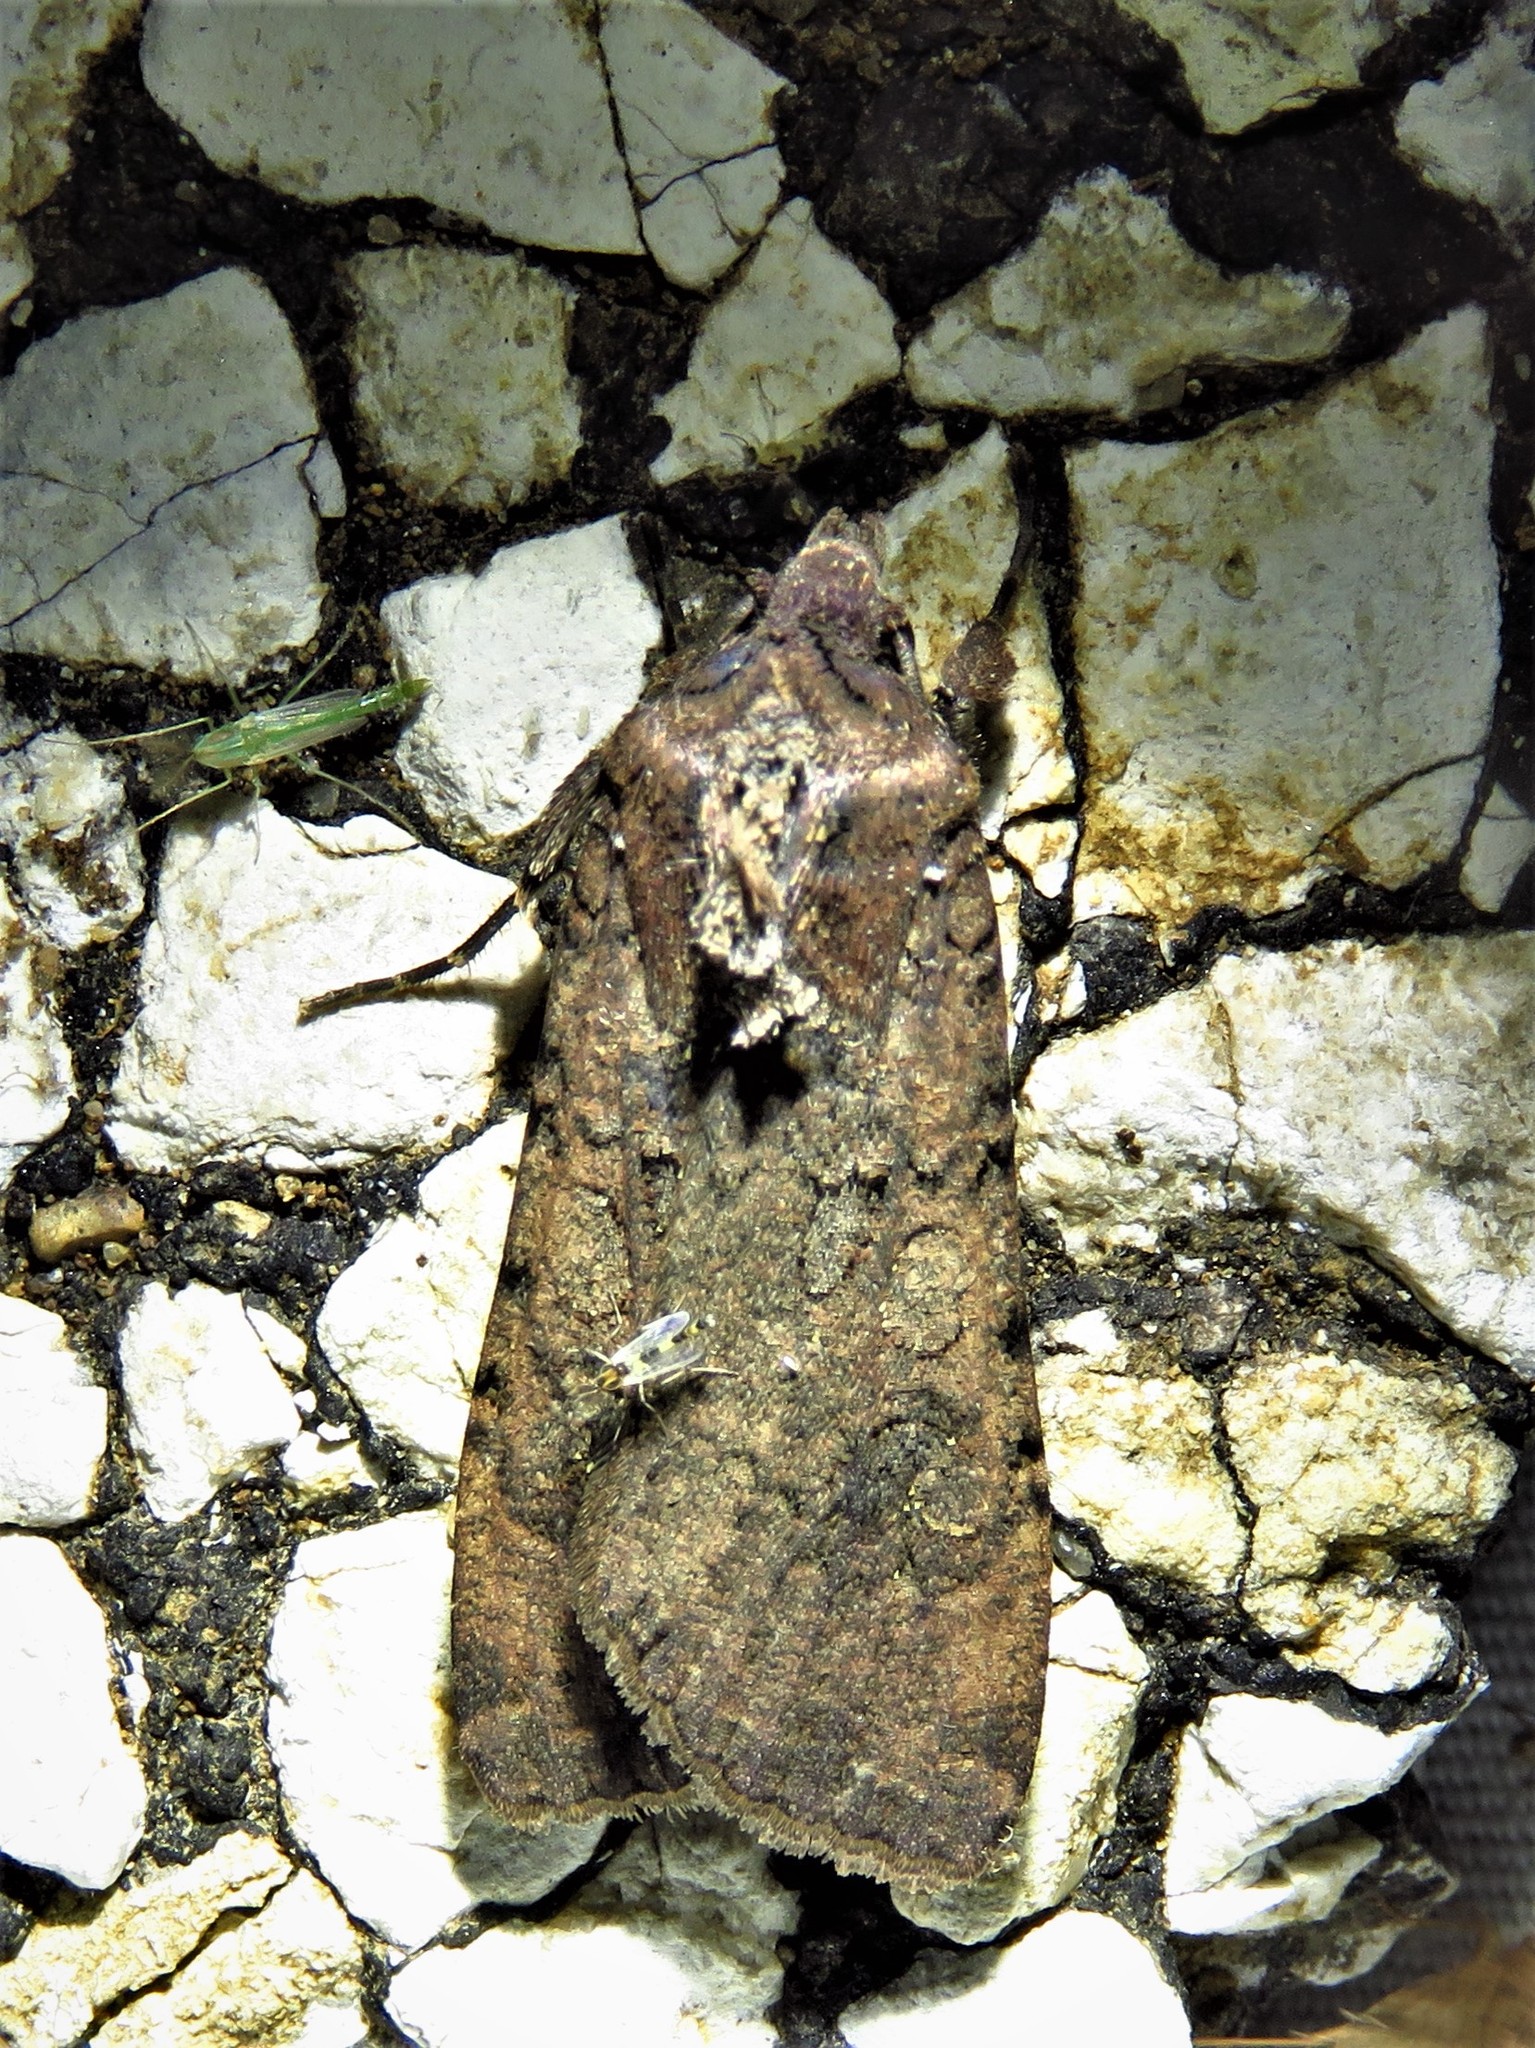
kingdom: Animalia
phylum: Arthropoda
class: Insecta
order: Lepidoptera
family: Noctuidae
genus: Peridroma
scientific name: Peridroma saucia
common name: Pearly underwing
